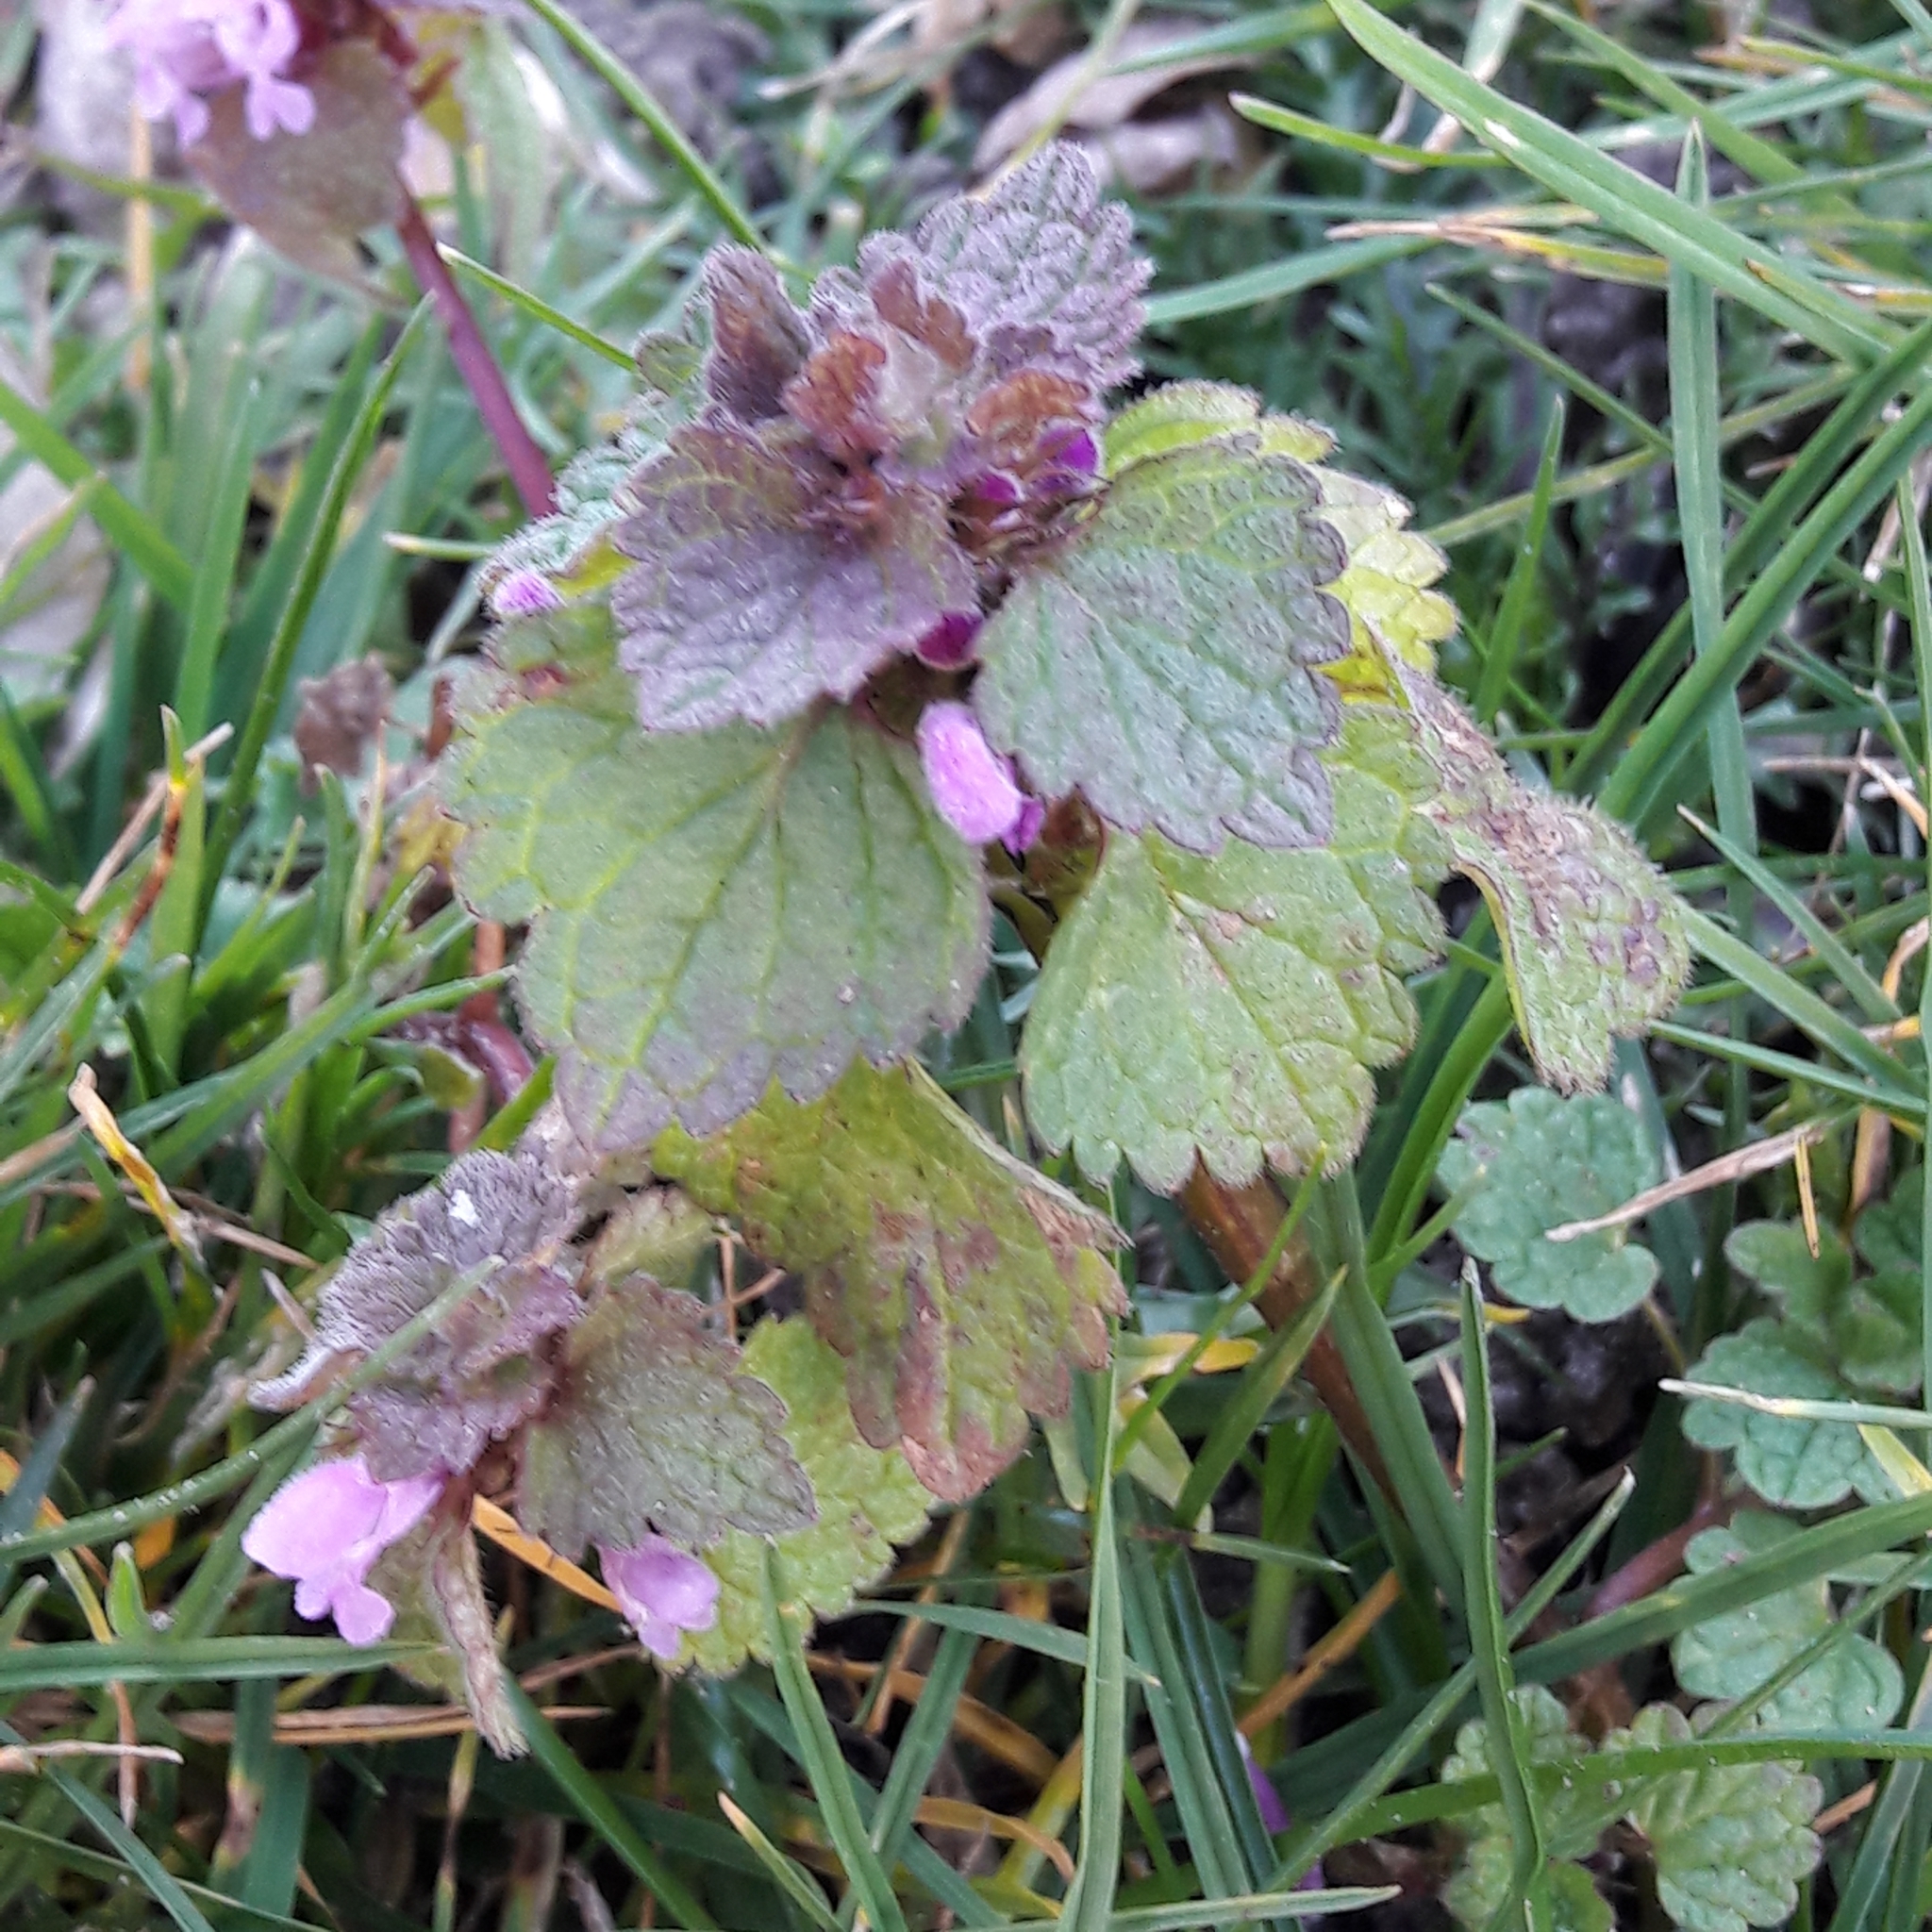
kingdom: Plantae
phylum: Tracheophyta
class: Magnoliopsida
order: Lamiales
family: Lamiaceae
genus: Lamium
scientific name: Lamium purpureum
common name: Red dead-nettle
